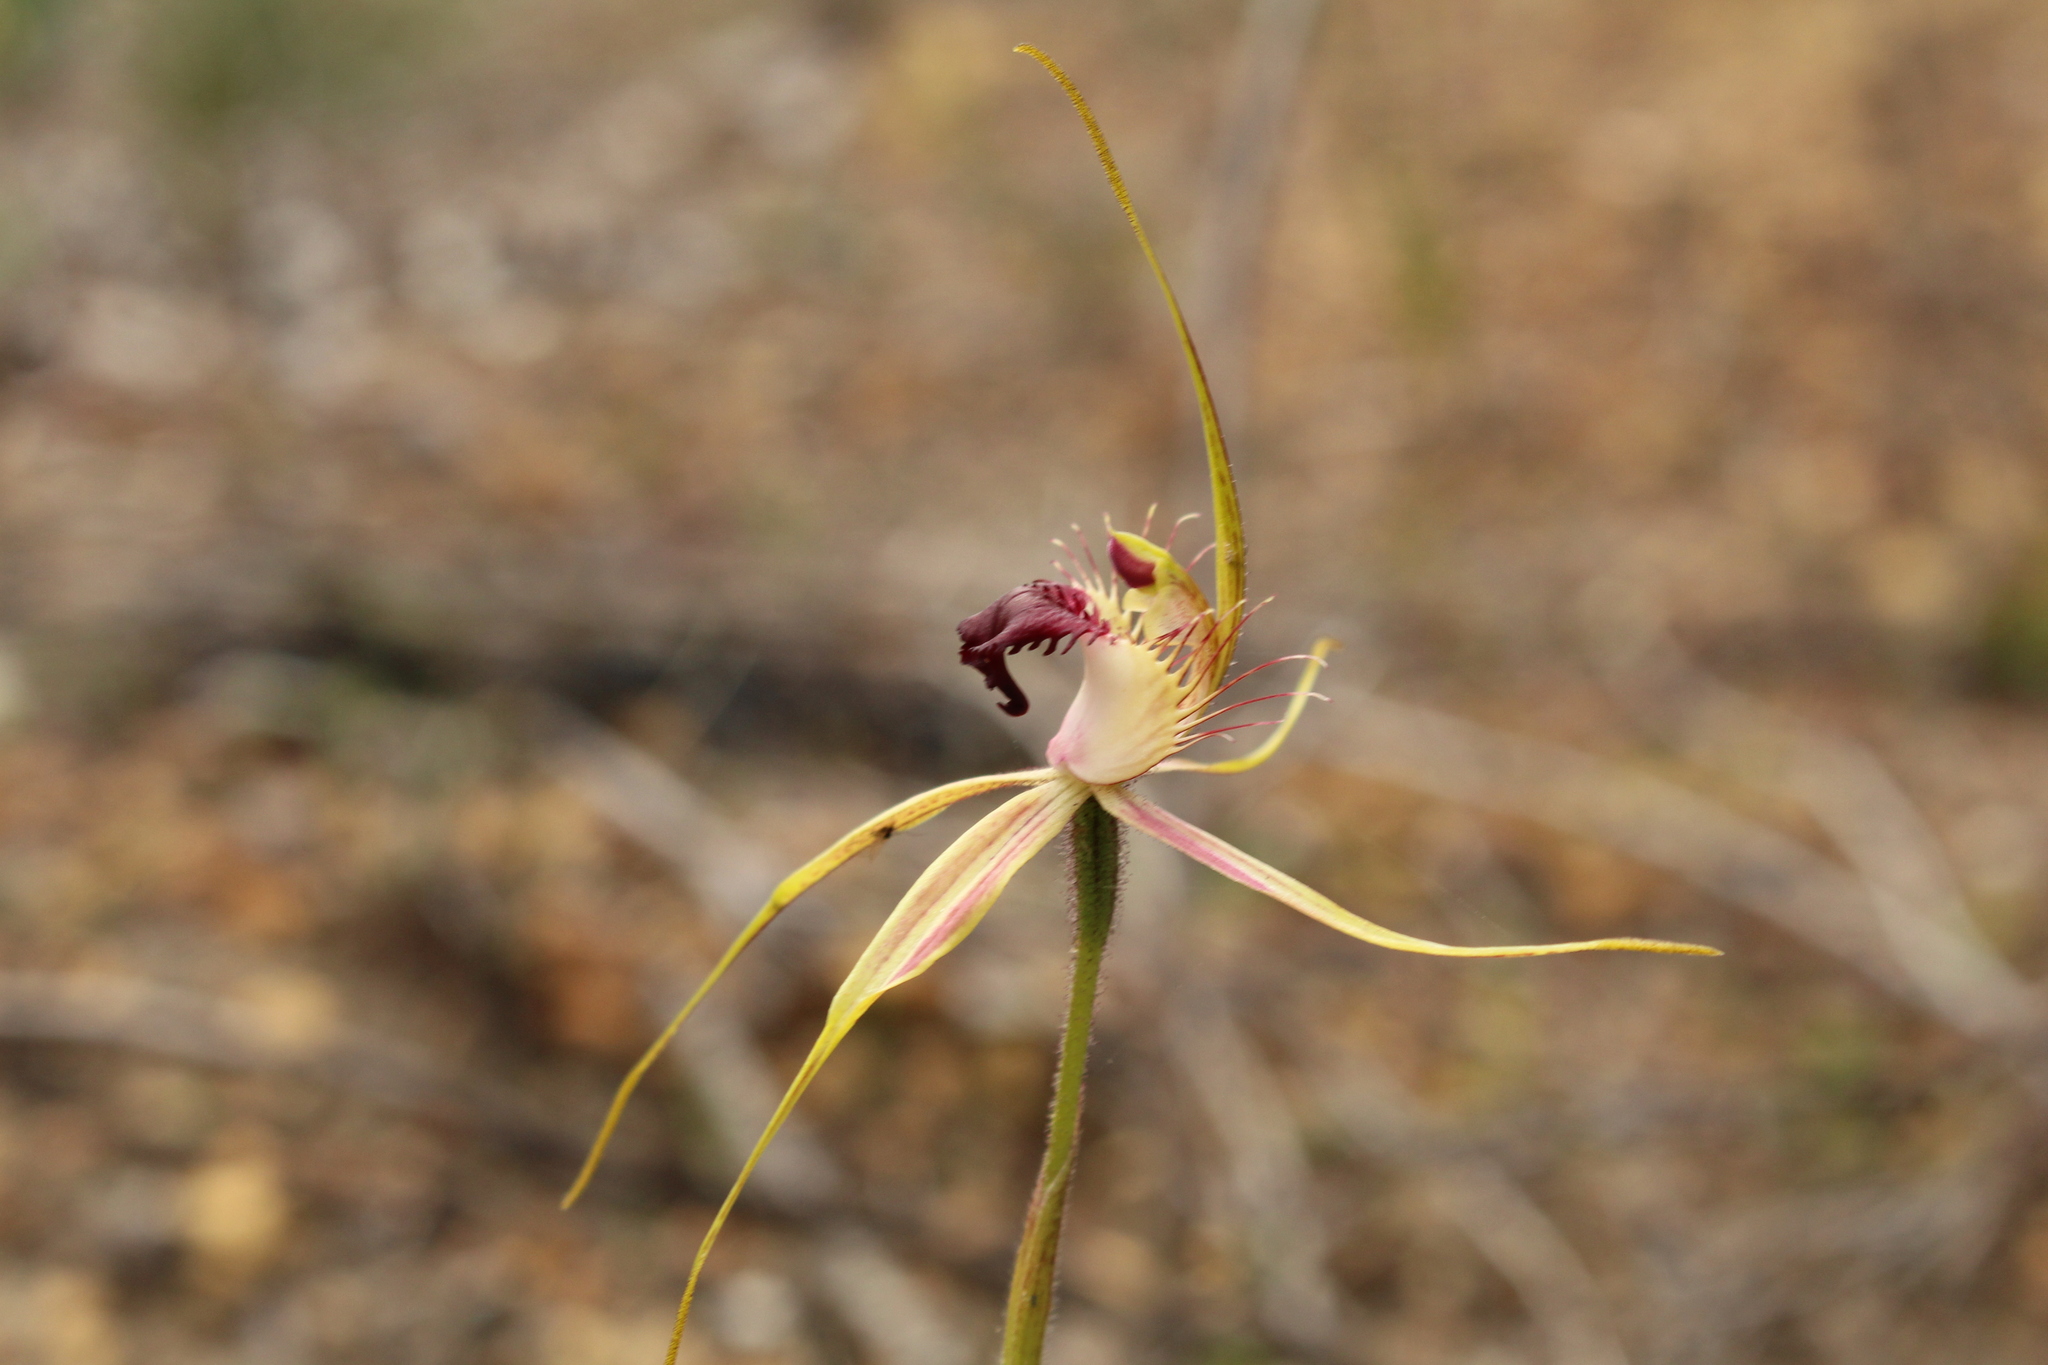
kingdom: Plantae
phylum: Tracheophyta
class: Liliopsida
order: Asparagales
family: Orchidaceae
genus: Caladenia
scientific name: Caladenia brownii
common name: Kari spider orchid
